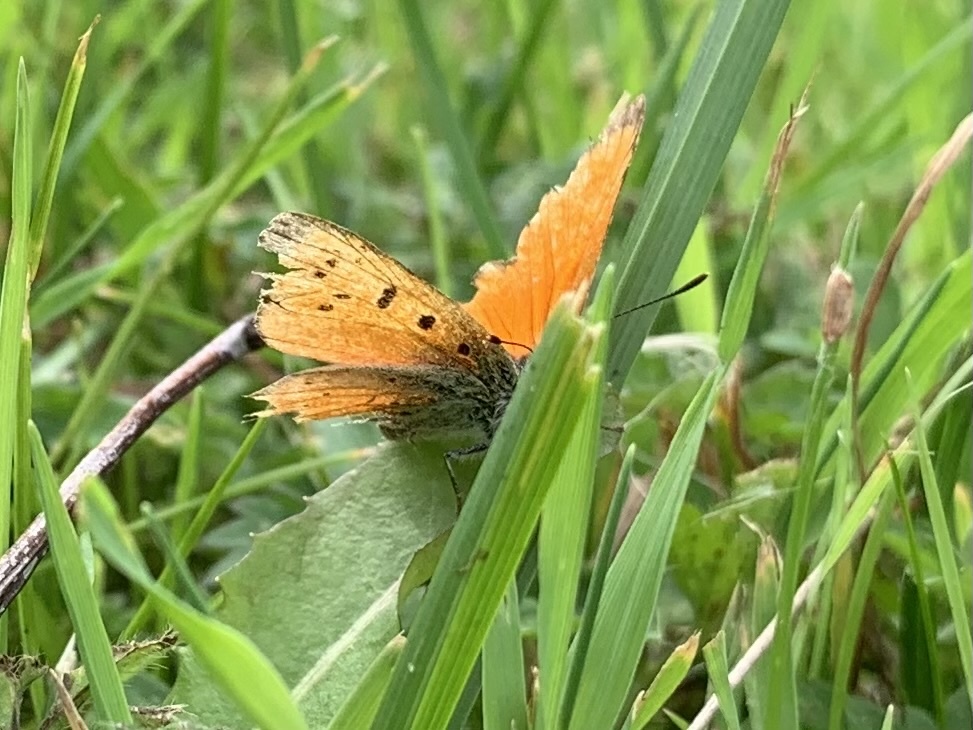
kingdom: Animalia
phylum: Arthropoda
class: Insecta
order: Lepidoptera
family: Lycaenidae
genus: Lycaena
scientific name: Lycaena virgaureae
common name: Scarce copper
